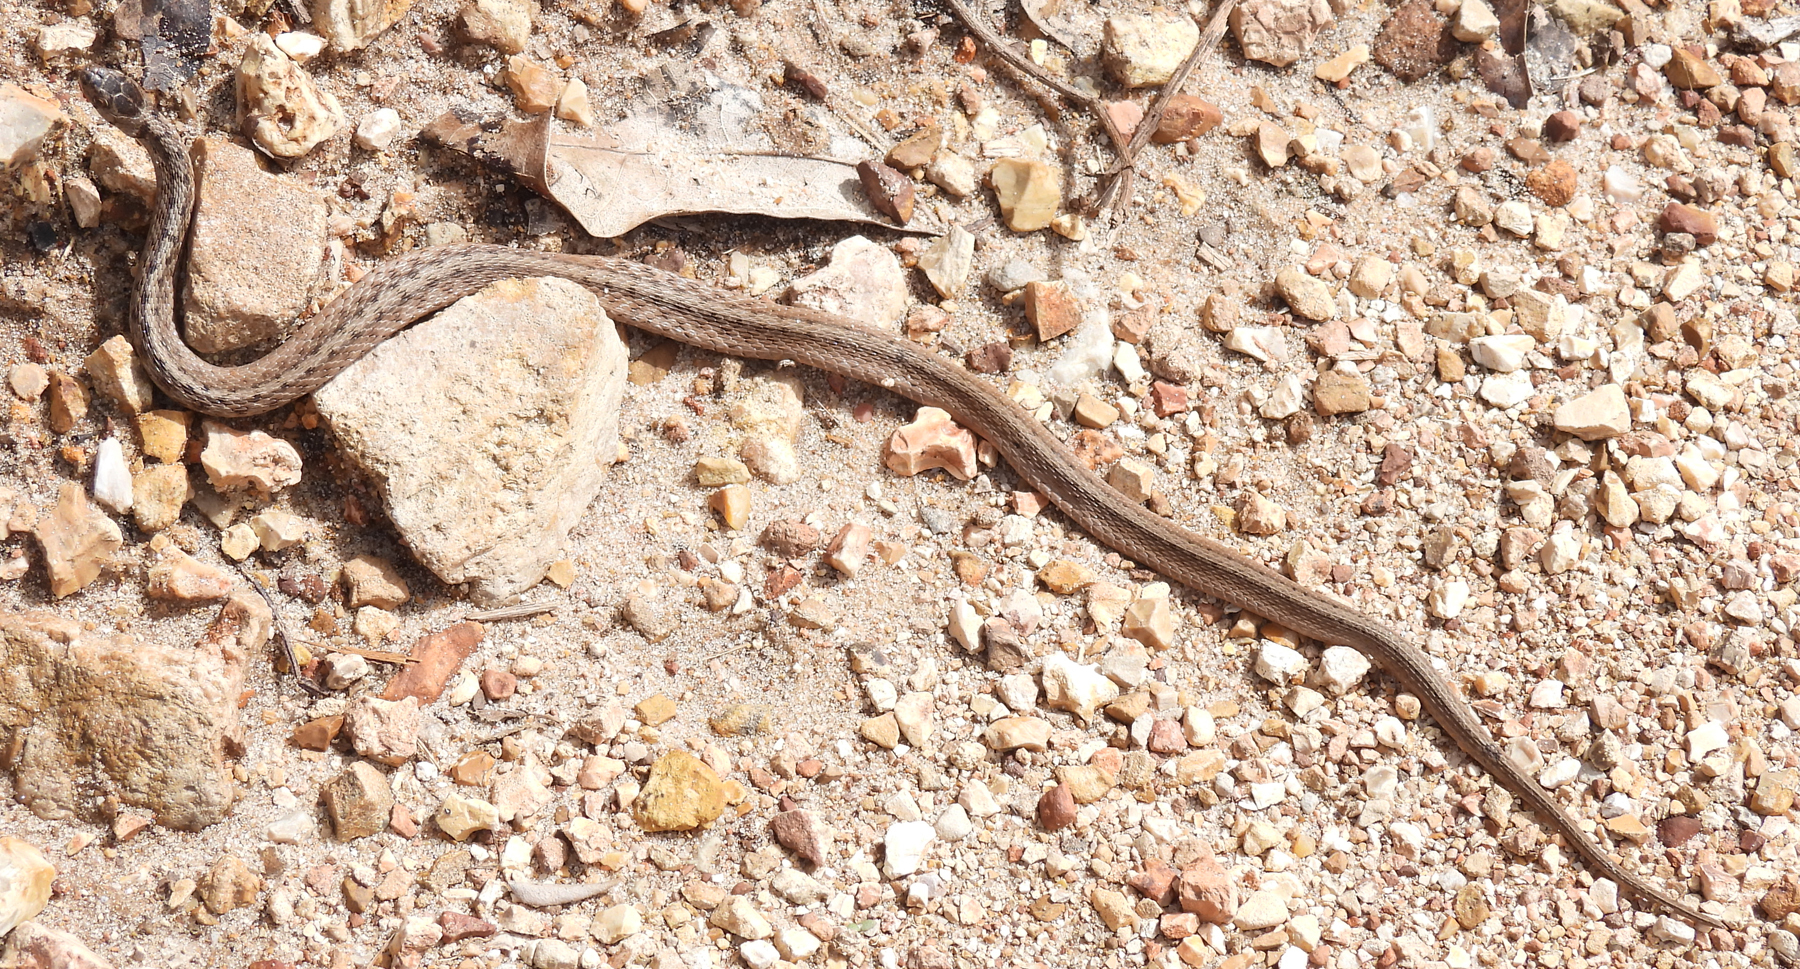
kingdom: Animalia
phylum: Chordata
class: Squamata
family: Colubridae
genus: Storeria
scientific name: Storeria dekayi
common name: (dekay’s) brown snake
